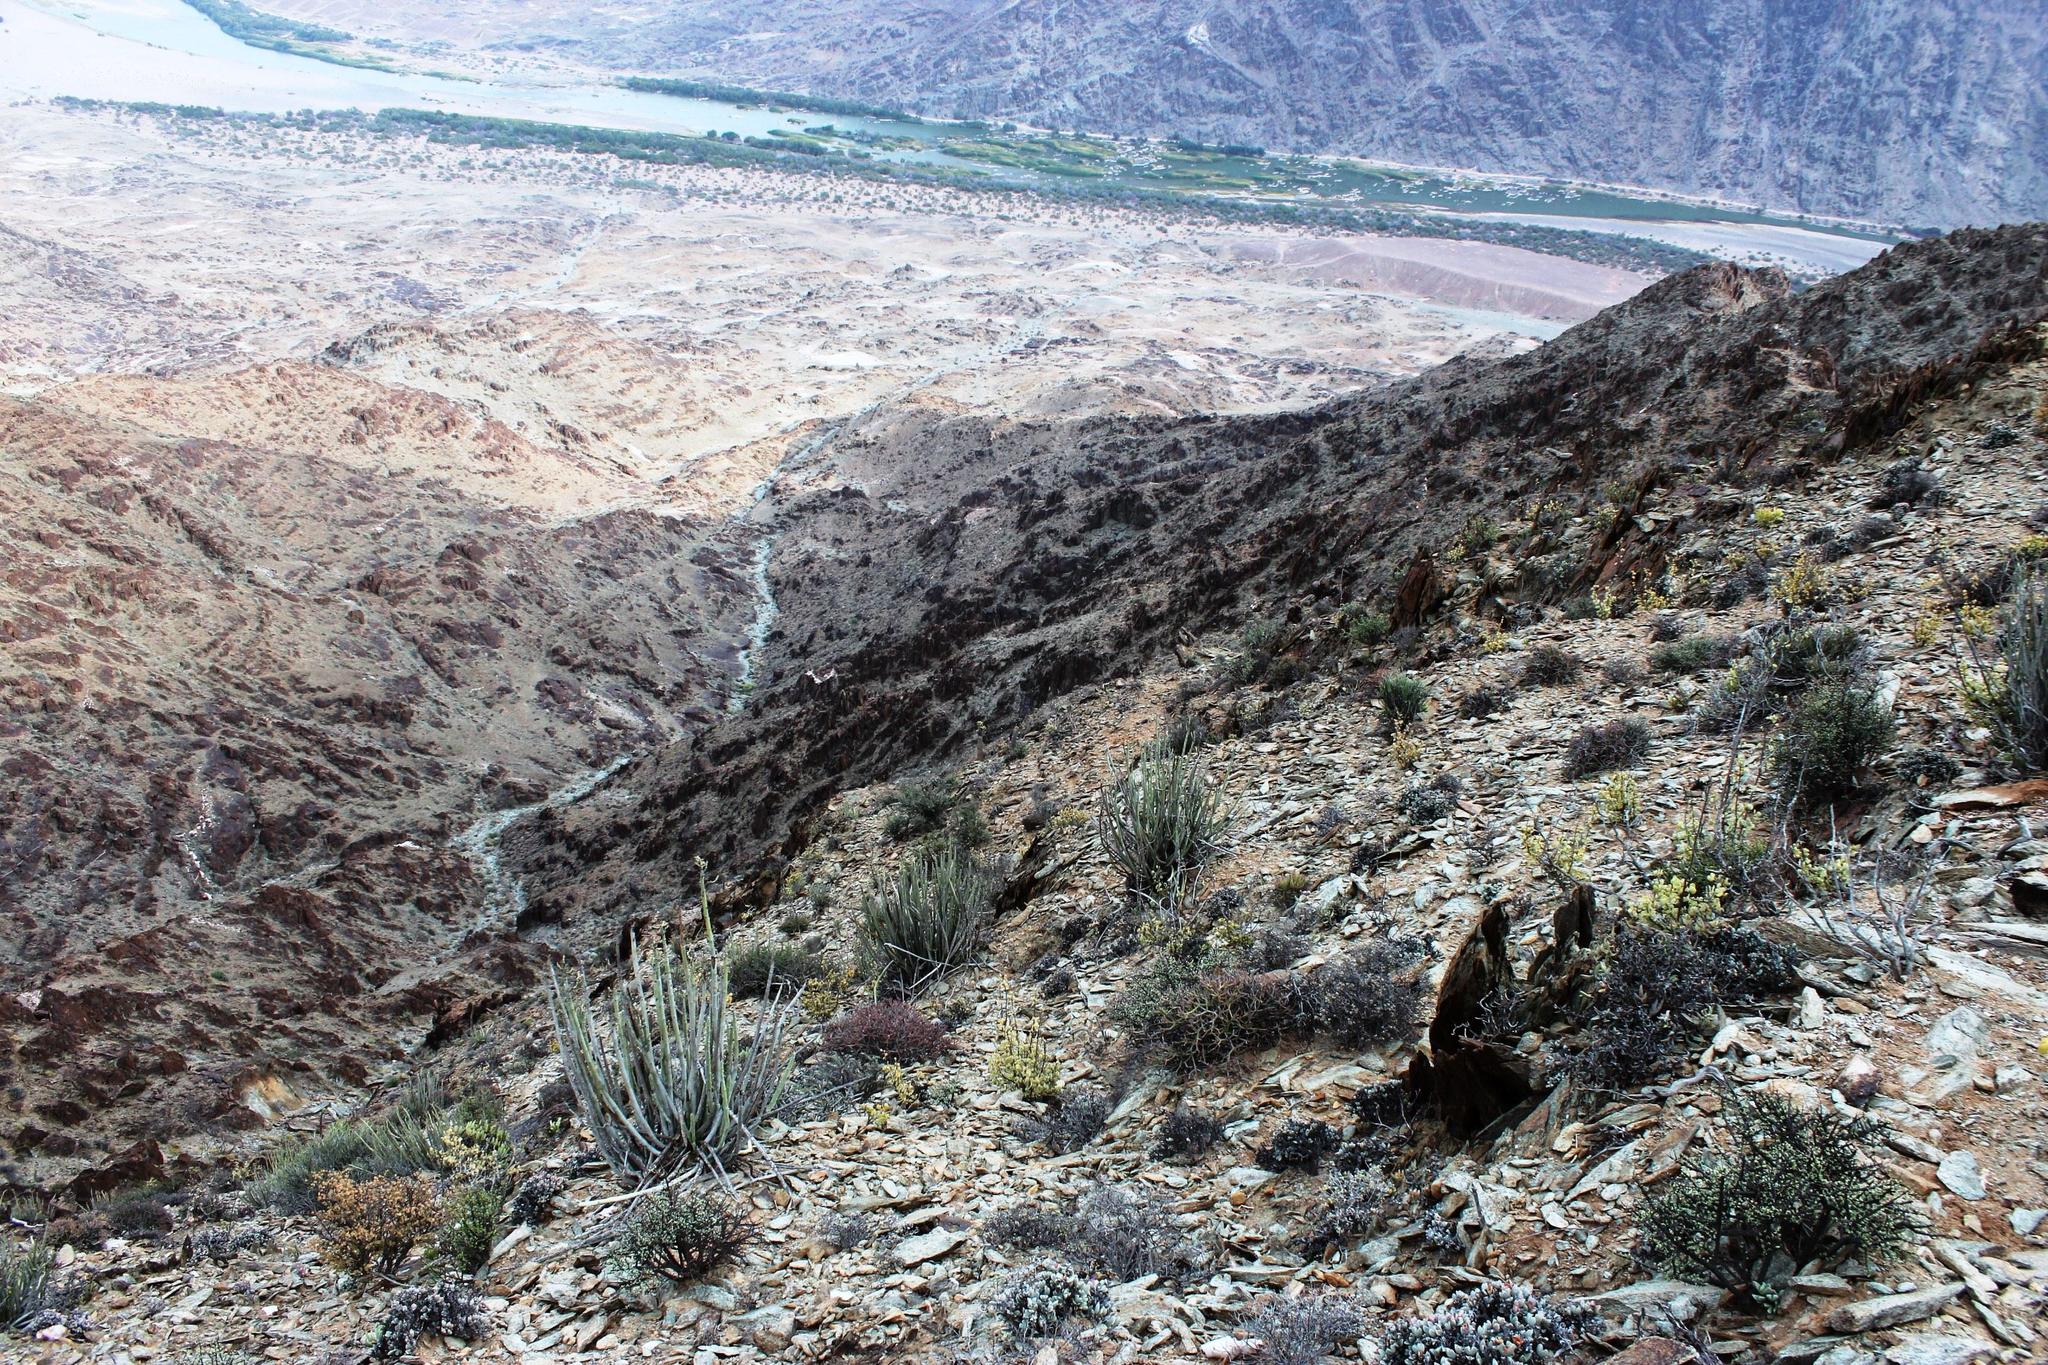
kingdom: Plantae
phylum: Tracheophyta
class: Magnoliopsida
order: Malpighiales
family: Euphorbiaceae
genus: Euphorbia
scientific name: Euphorbia dregeana
